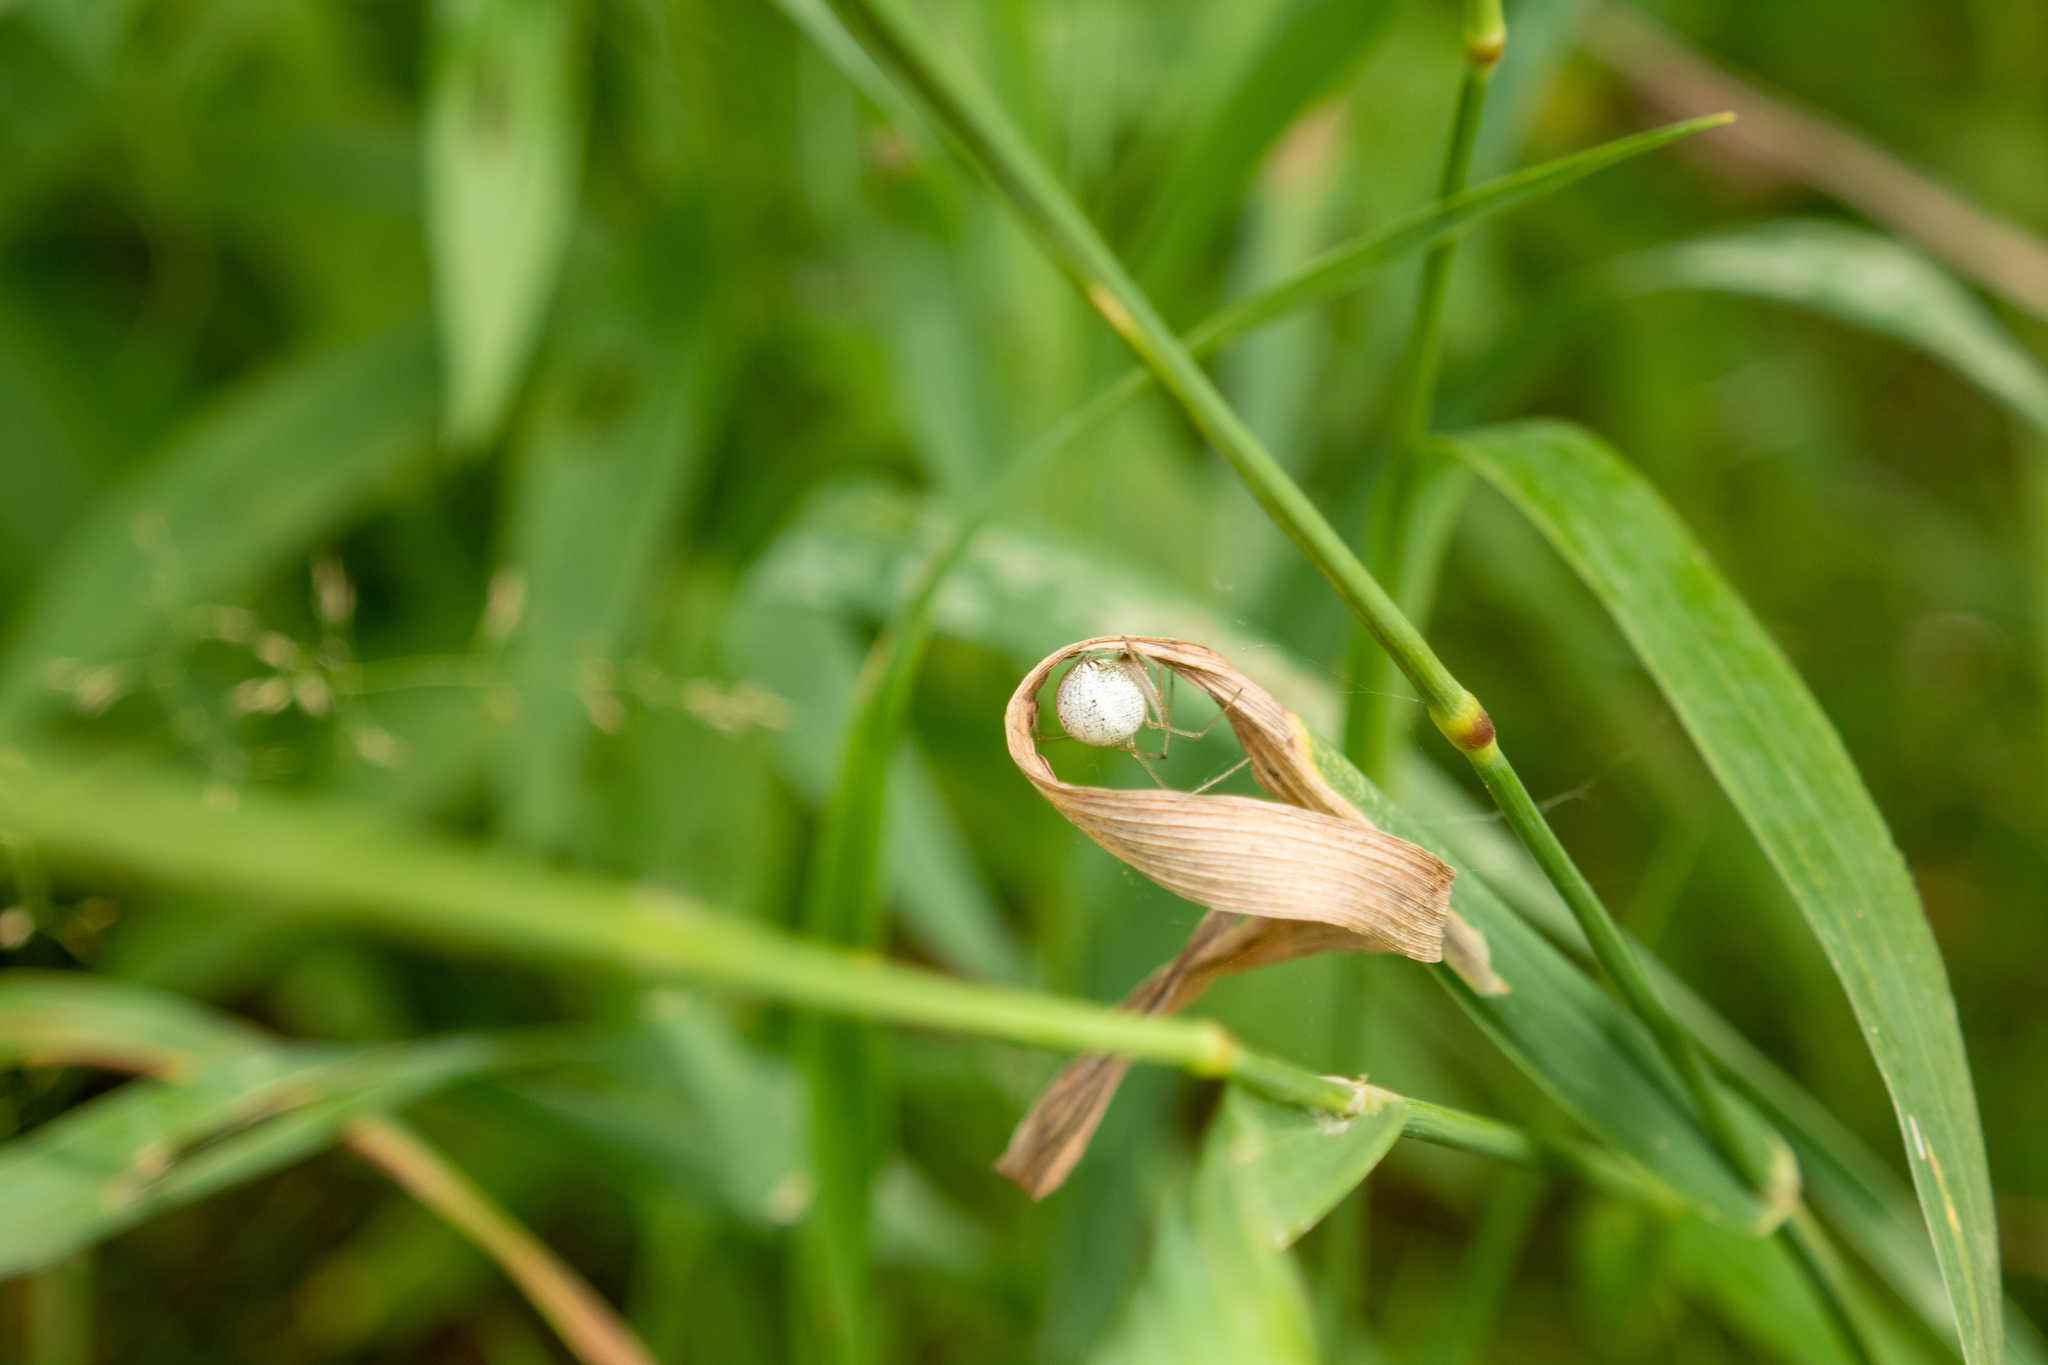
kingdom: Animalia
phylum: Arthropoda
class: Arachnida
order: Araneae
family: Theridiidae
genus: Enoplognatha
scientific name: Enoplognatha ovata
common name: Common candy-striped spider
